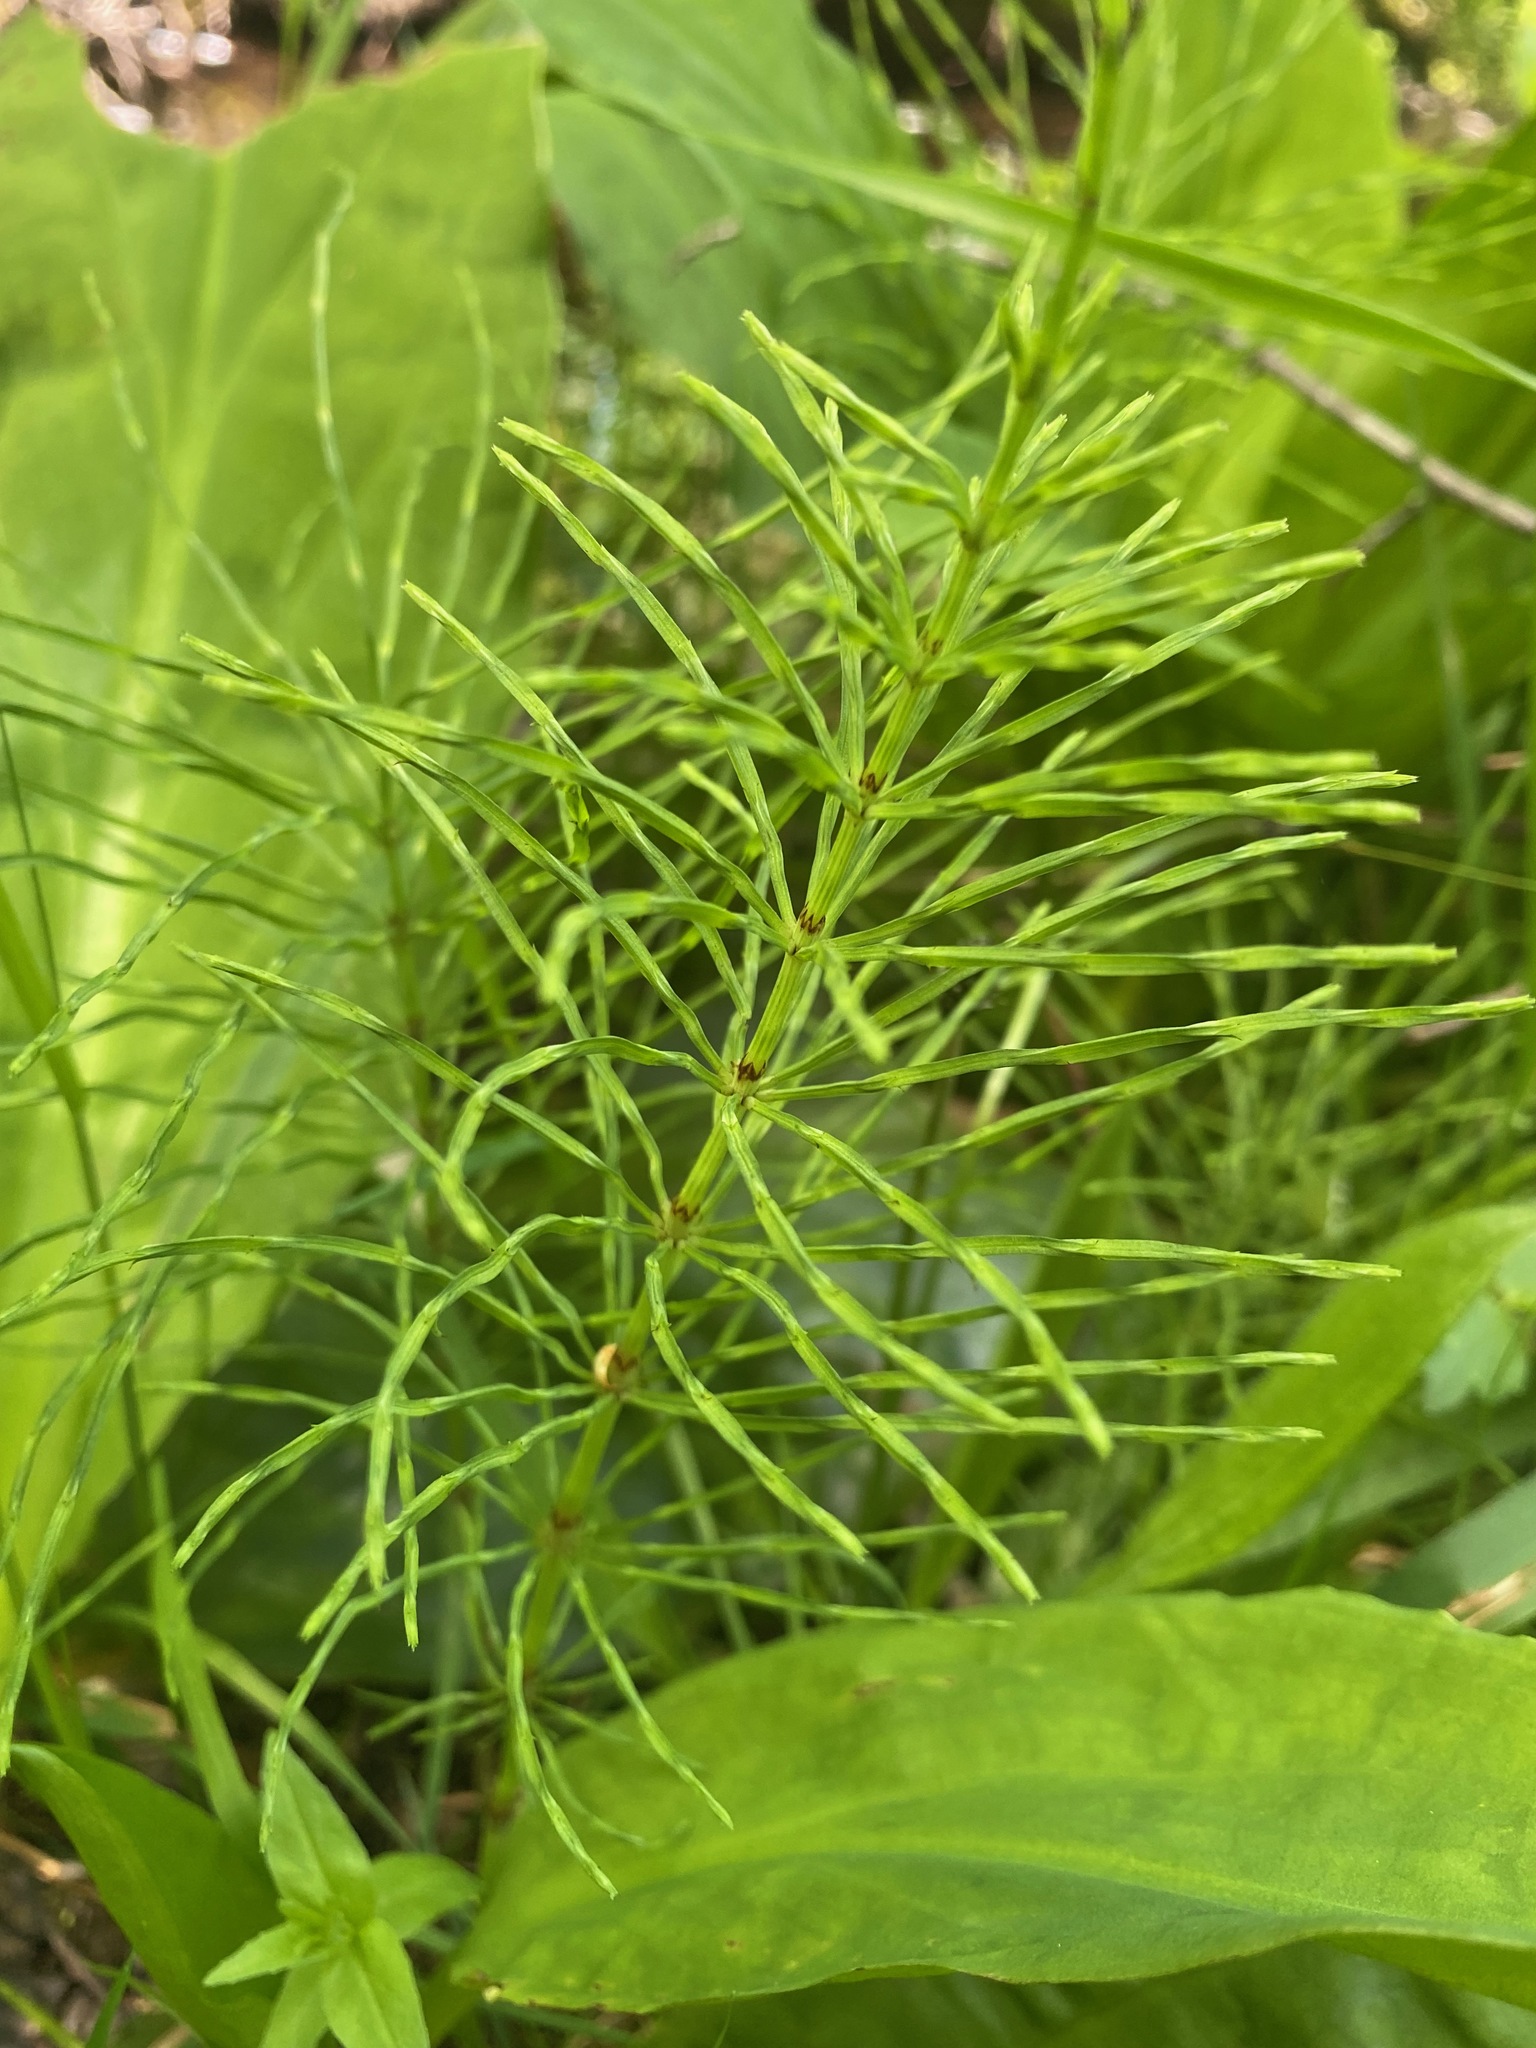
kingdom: Plantae
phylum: Tracheophyta
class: Polypodiopsida
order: Equisetales
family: Equisetaceae
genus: Equisetum
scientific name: Equisetum arvense
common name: Field horsetail
